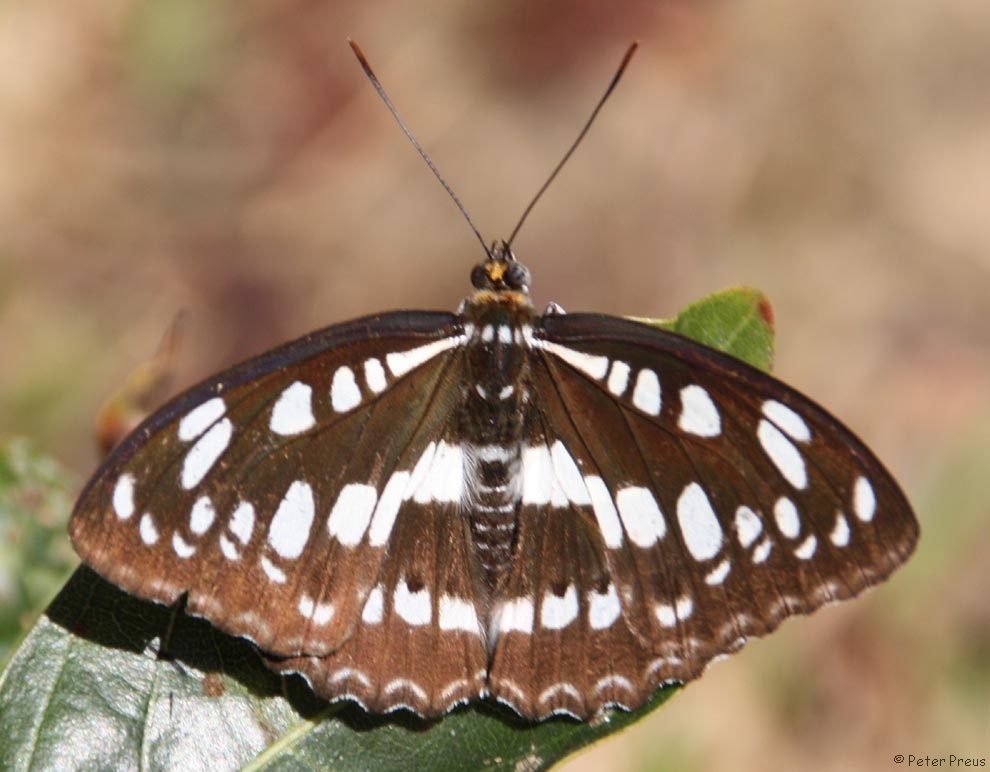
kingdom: Animalia
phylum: Arthropoda
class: Insecta
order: Lepidoptera
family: Nymphalidae
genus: Parathyma
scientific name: Parathyma perius
